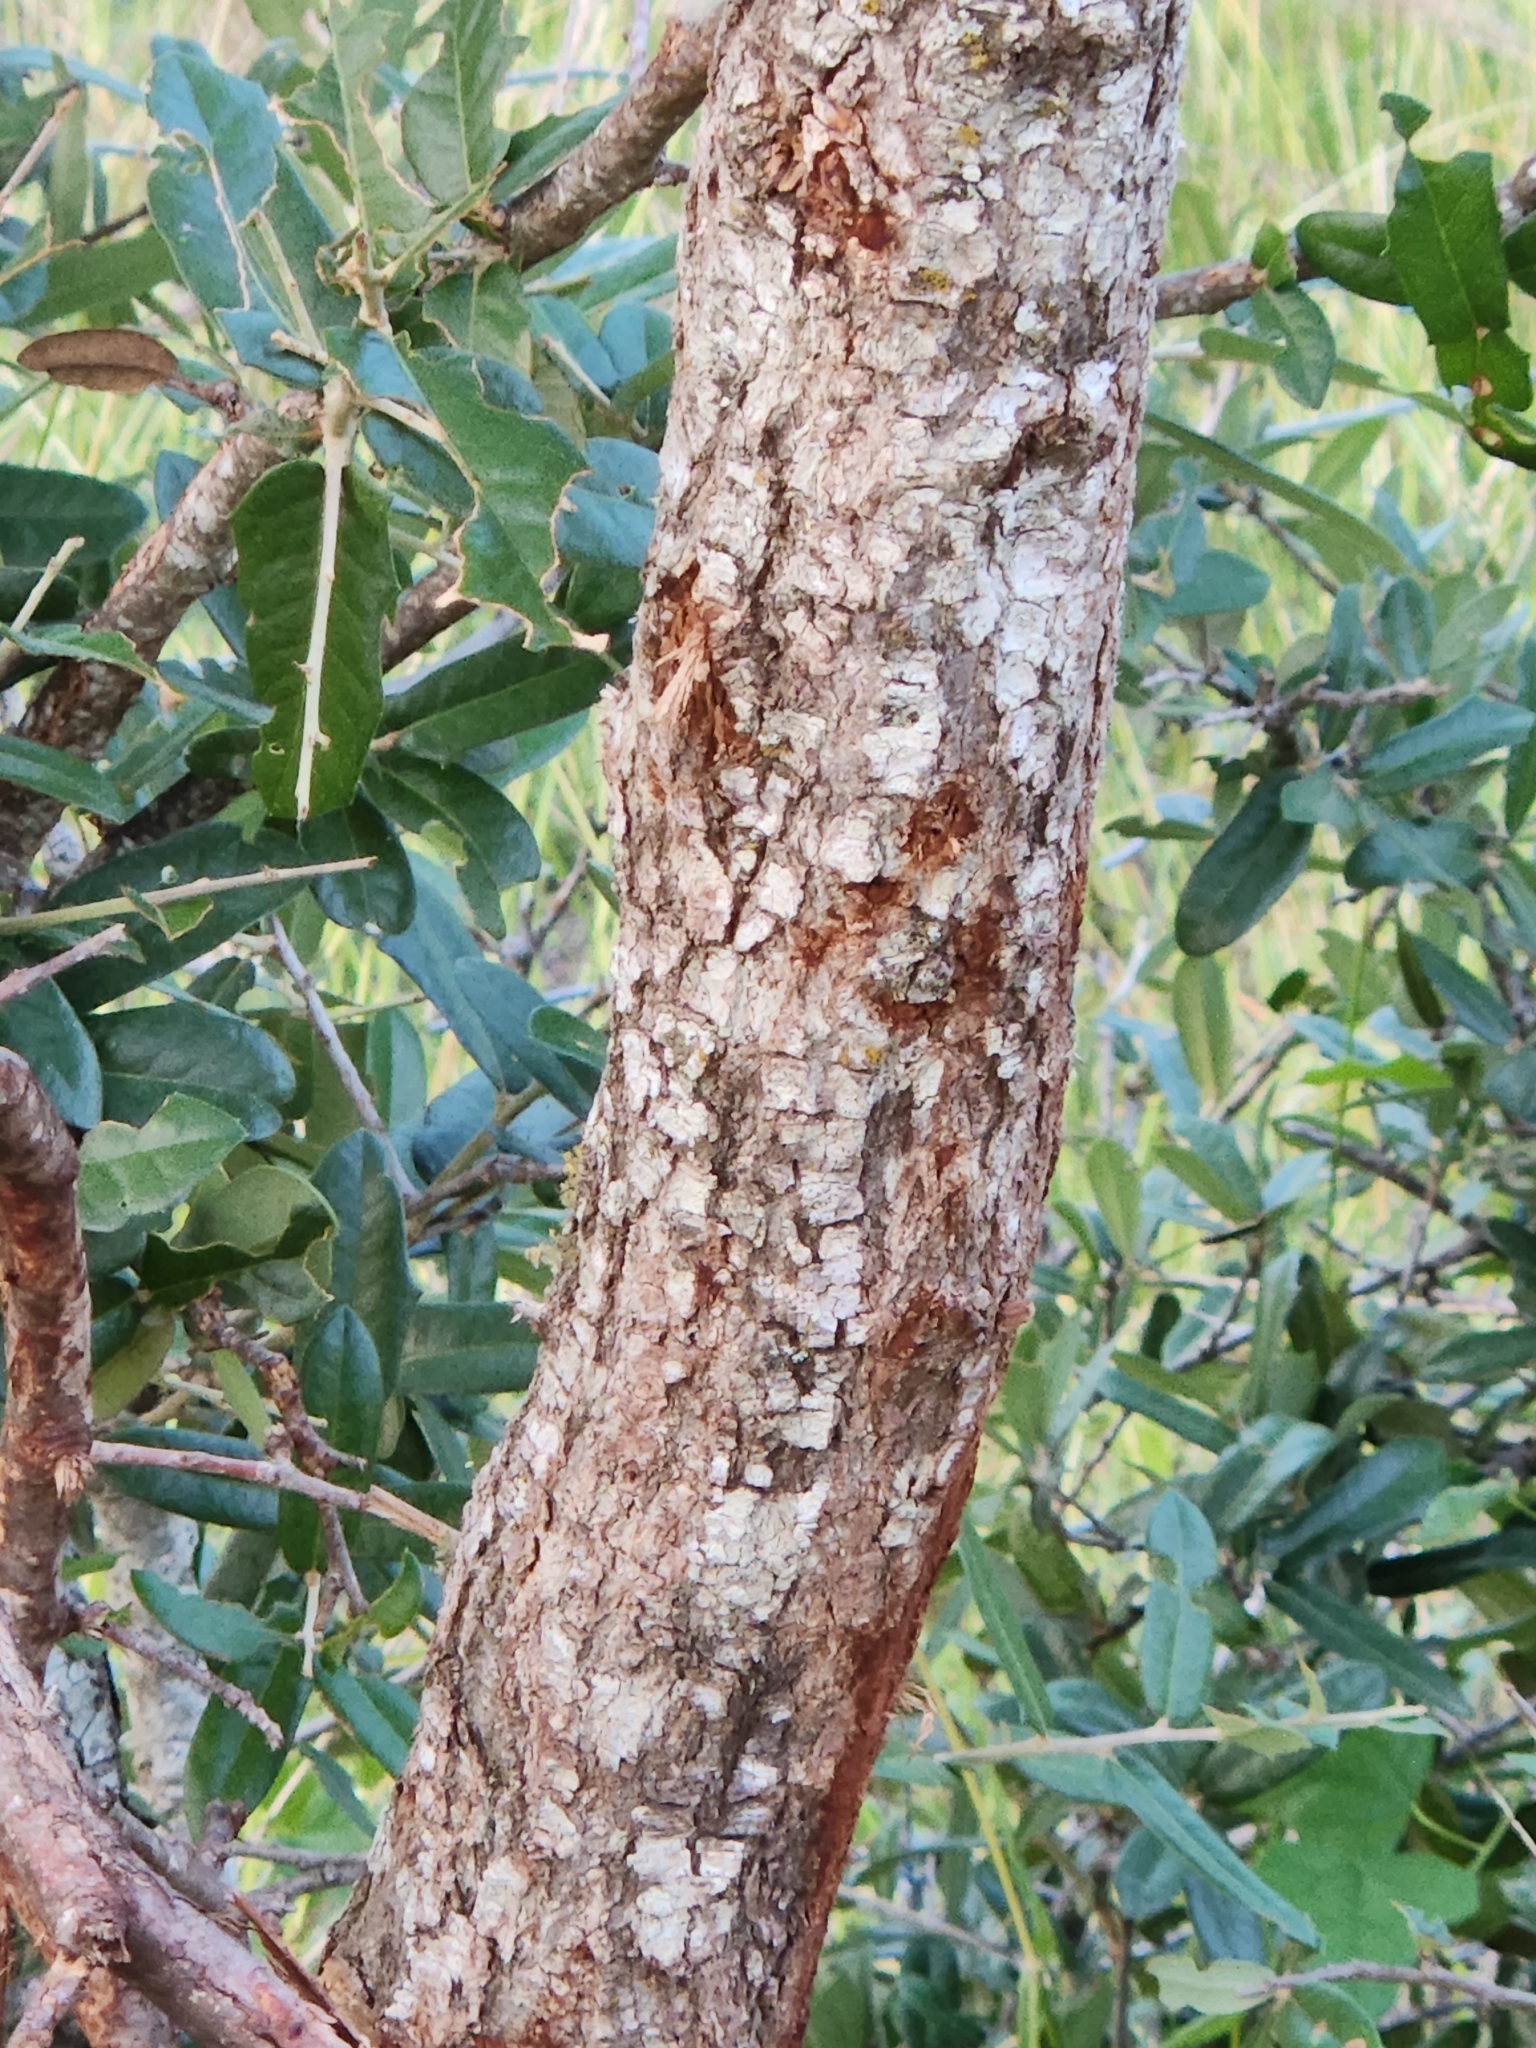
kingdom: Plantae
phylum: Tracheophyta
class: Magnoliopsida
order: Fagales
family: Fagaceae
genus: Quercus
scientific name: Quercus fusiformis
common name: Texas live oak
